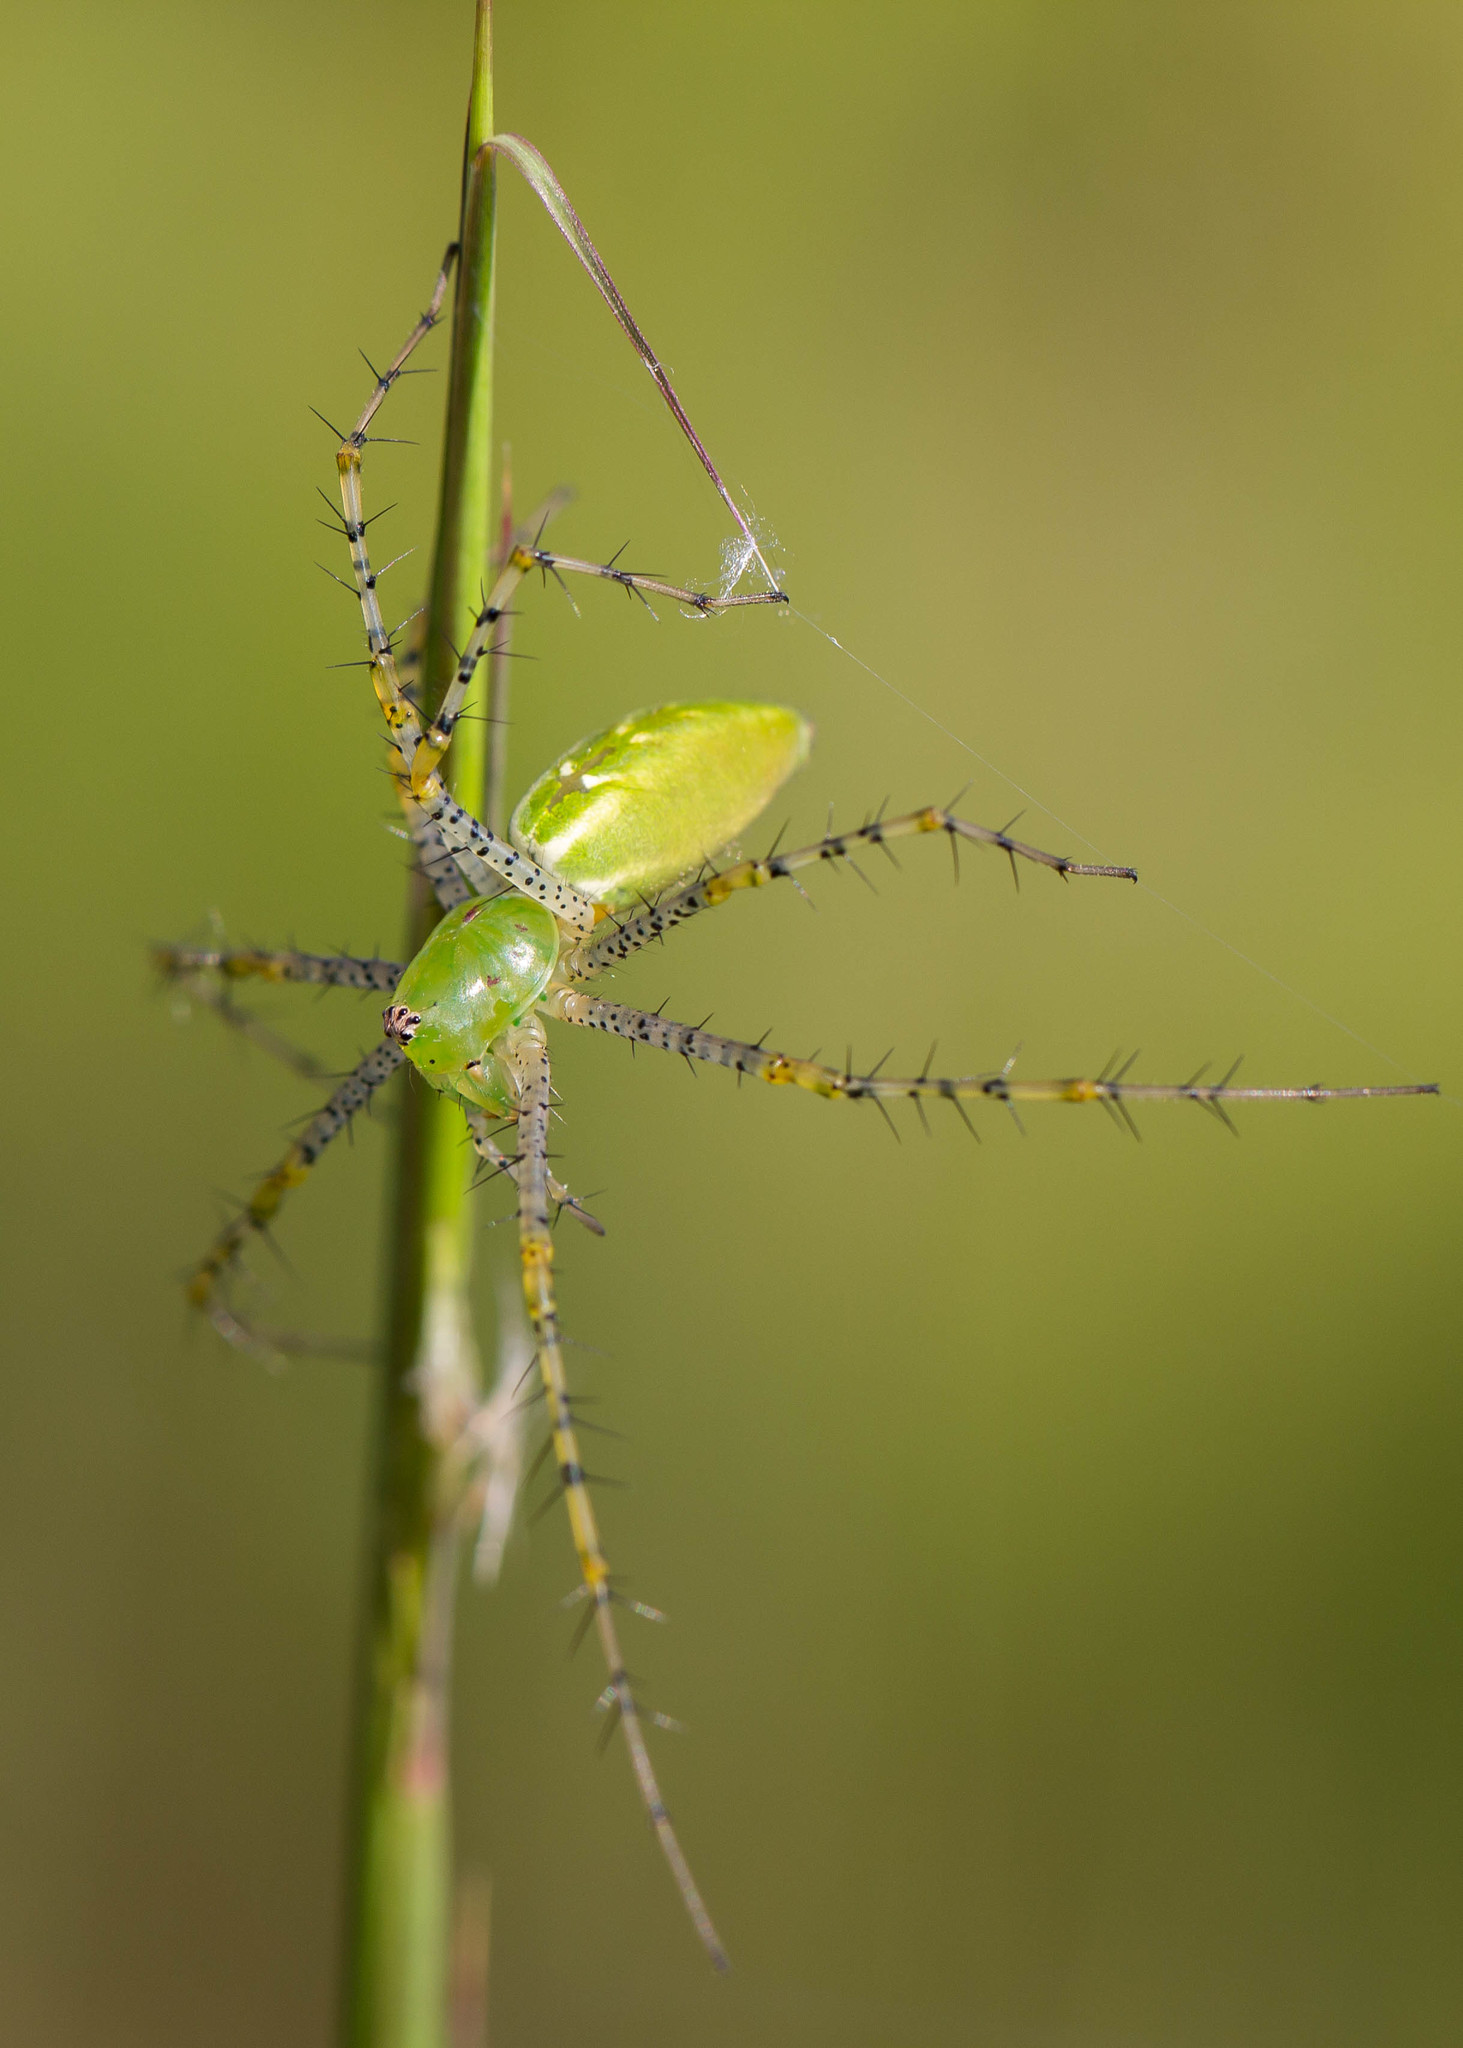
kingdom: Animalia
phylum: Arthropoda
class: Arachnida
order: Araneae
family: Oxyopidae
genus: Peucetia
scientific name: Peucetia viridans
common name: Lynx spiders
